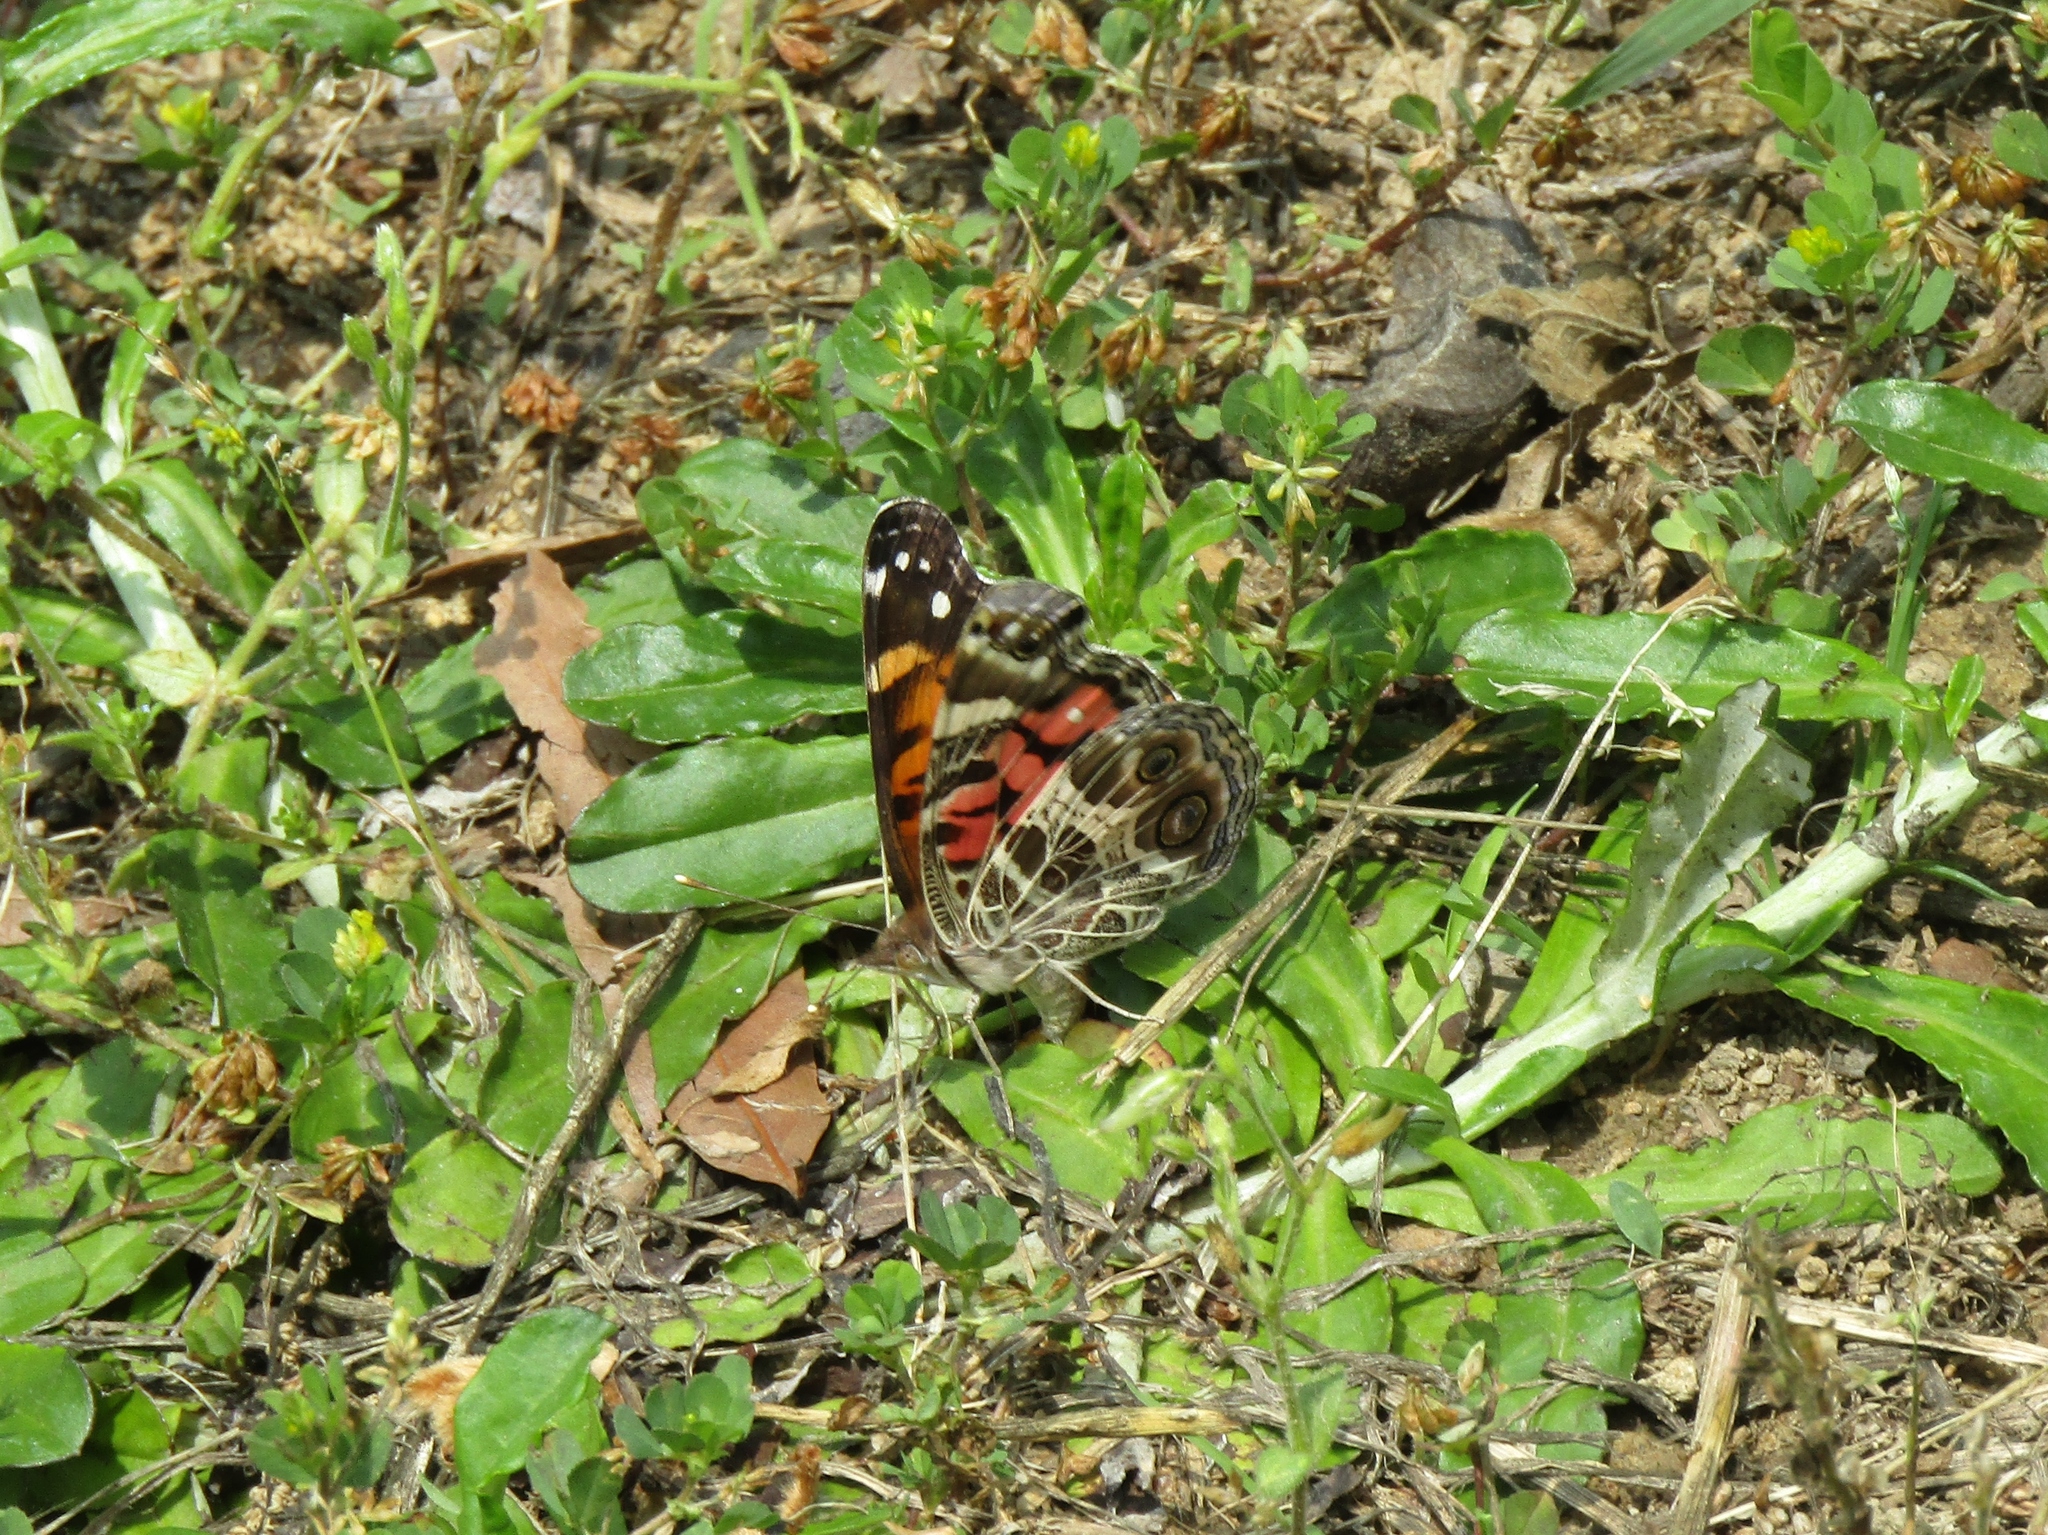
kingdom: Animalia
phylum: Arthropoda
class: Insecta
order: Lepidoptera
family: Nymphalidae
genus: Vanessa
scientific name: Vanessa virginiensis
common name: American lady
